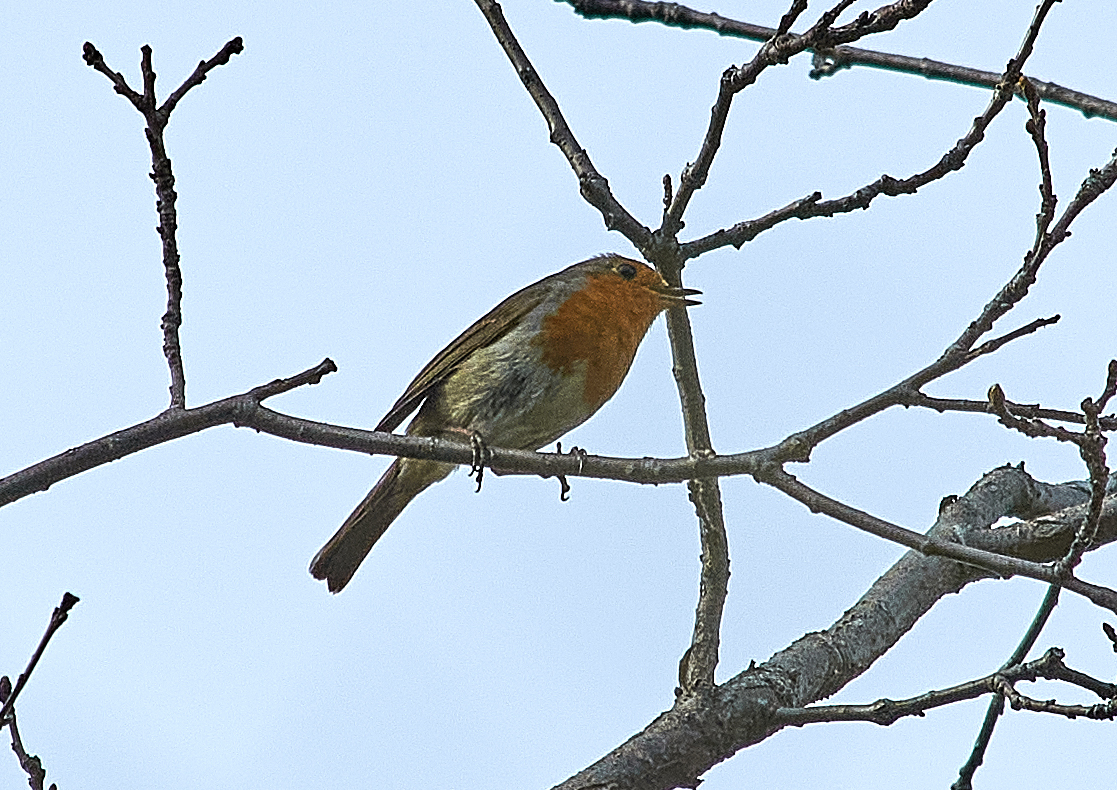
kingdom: Animalia
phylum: Chordata
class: Aves
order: Passeriformes
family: Muscicapidae
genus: Erithacus
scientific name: Erithacus rubecula
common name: European robin
